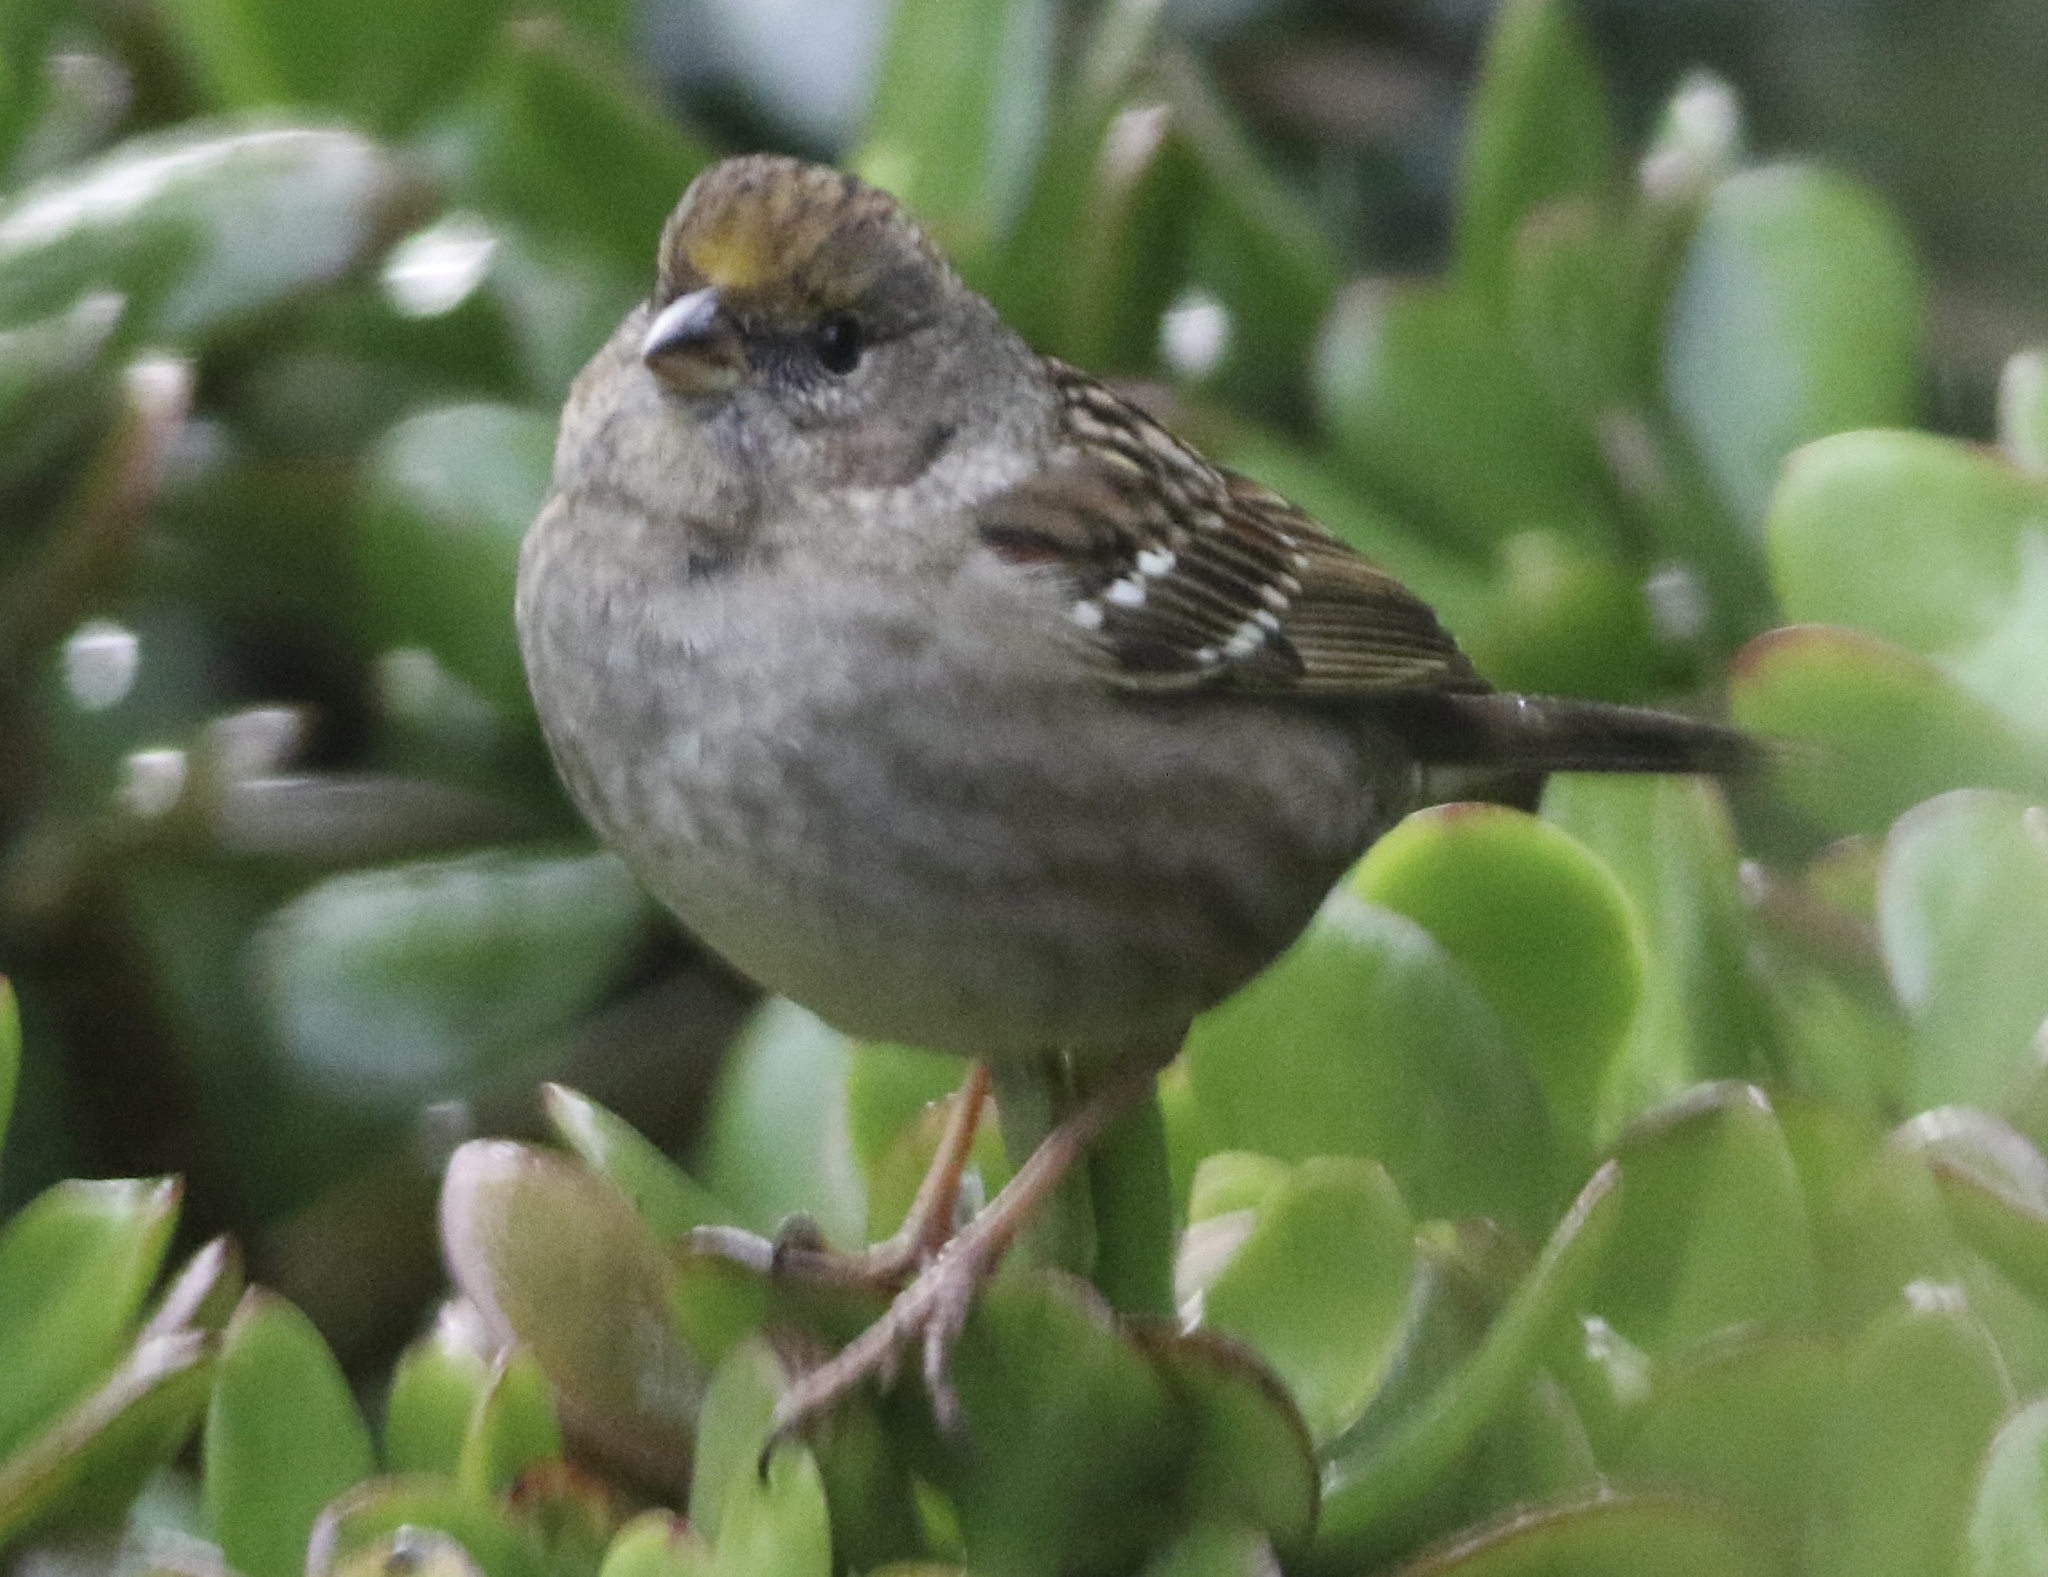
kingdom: Animalia
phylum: Chordata
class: Aves
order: Passeriformes
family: Passerellidae
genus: Zonotrichia
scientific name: Zonotrichia atricapilla
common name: Golden-crowned sparrow
